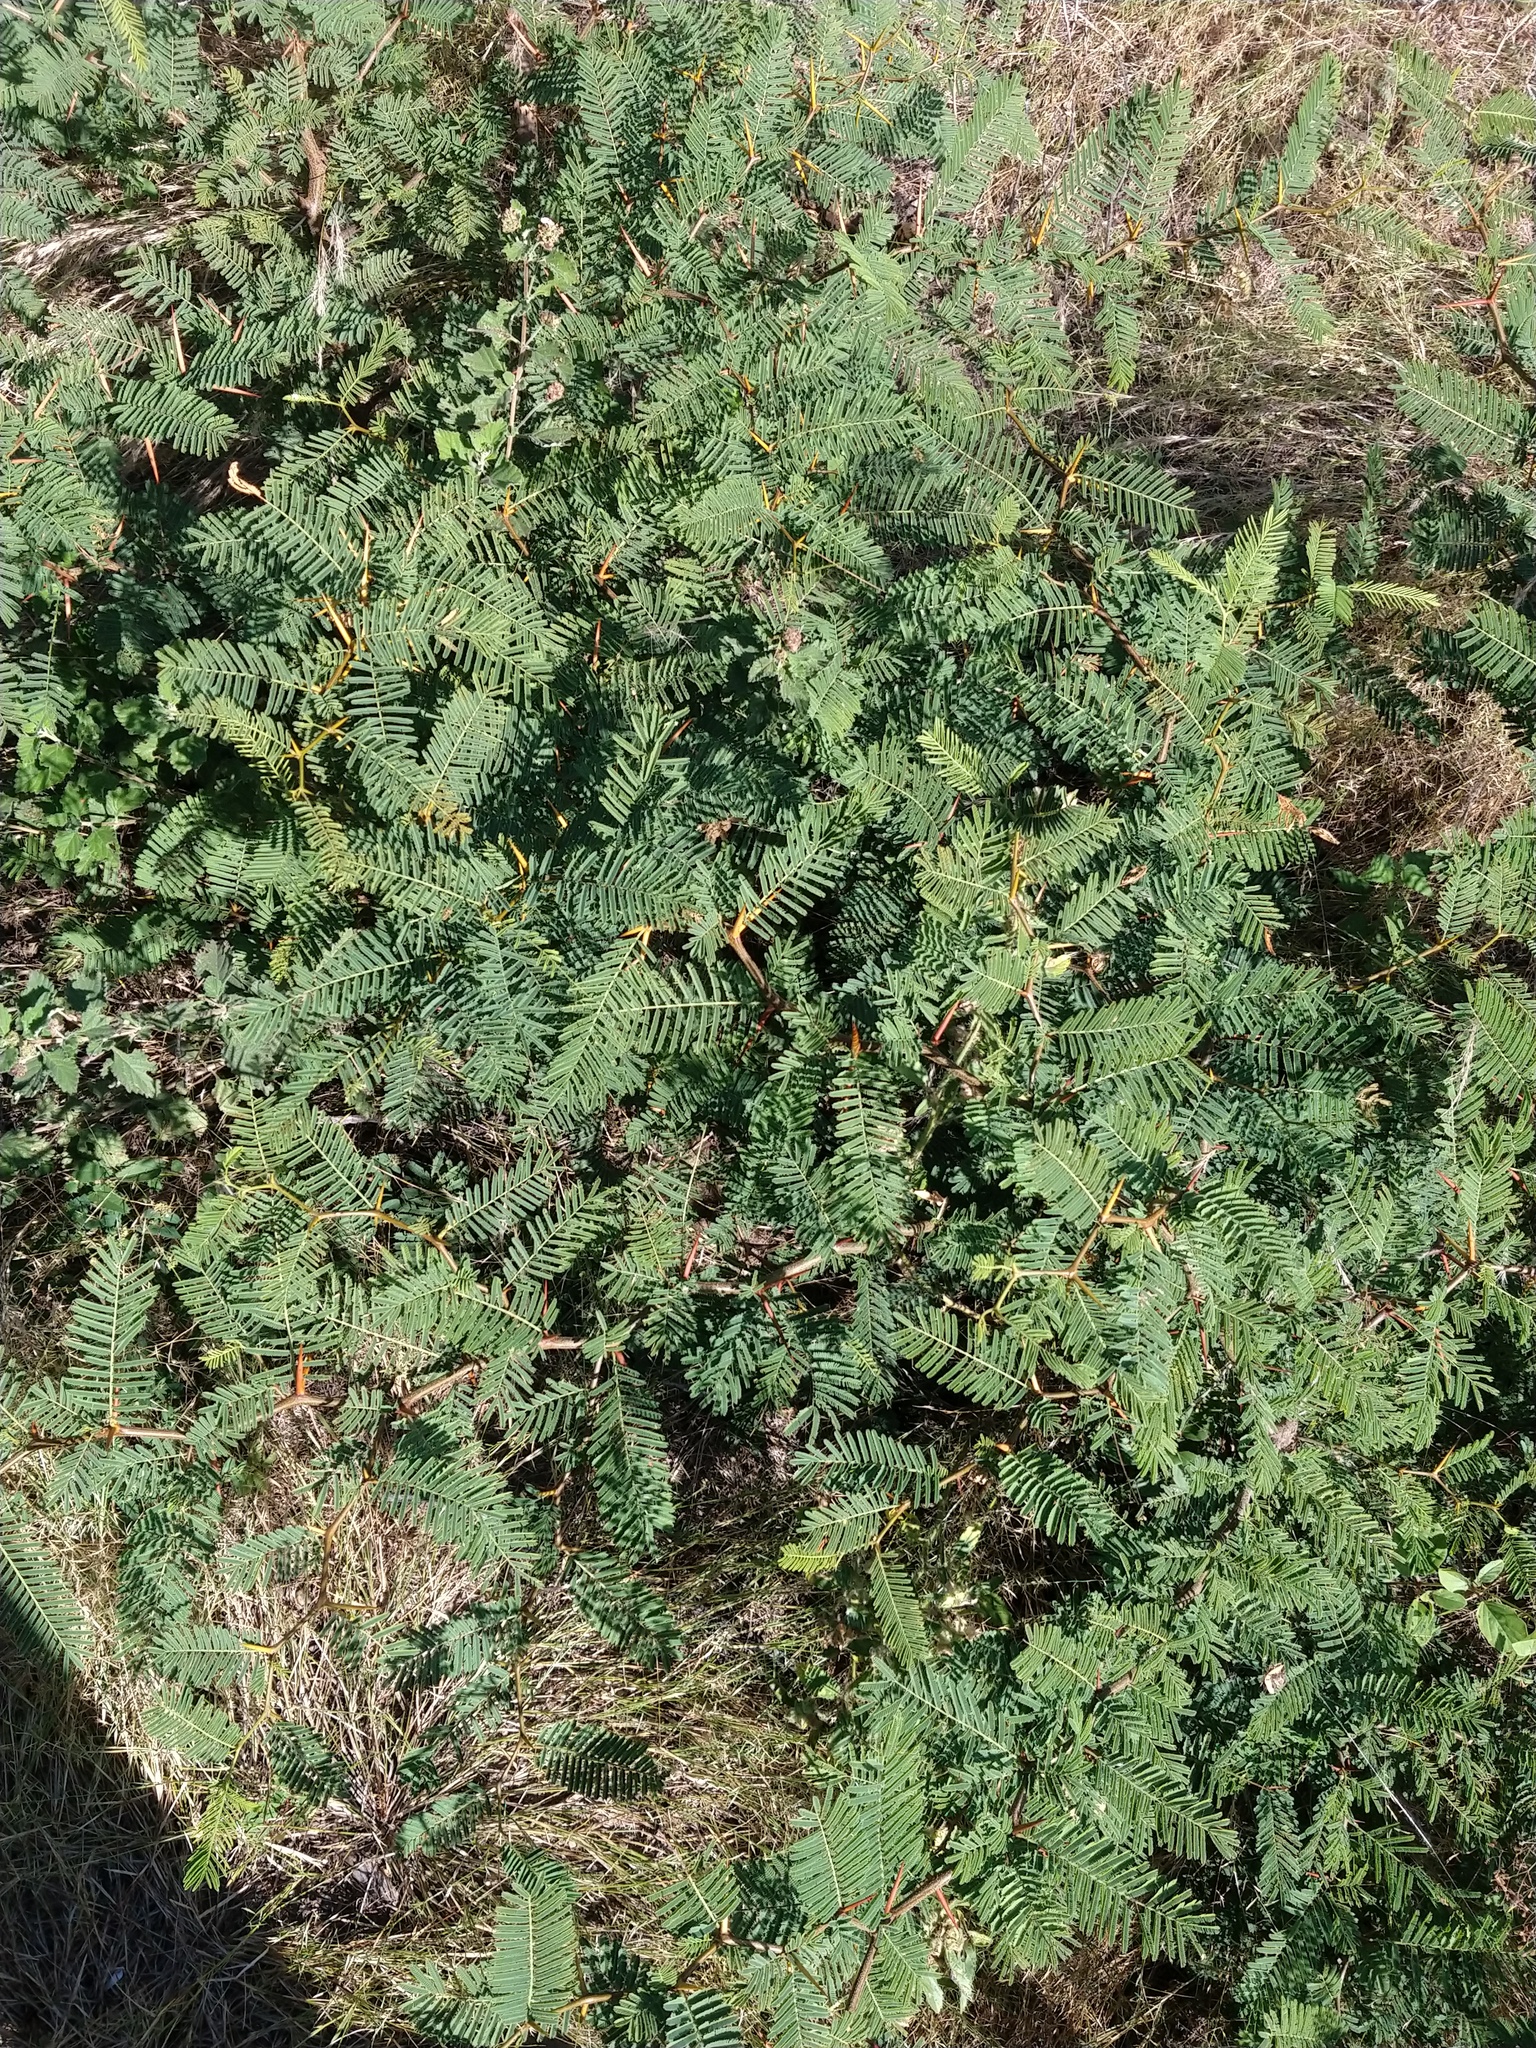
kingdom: Plantae
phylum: Tracheophyta
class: Magnoliopsida
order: Fabales
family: Fabaceae
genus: Vachellia
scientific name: Vachellia caven
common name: Roman cassie
